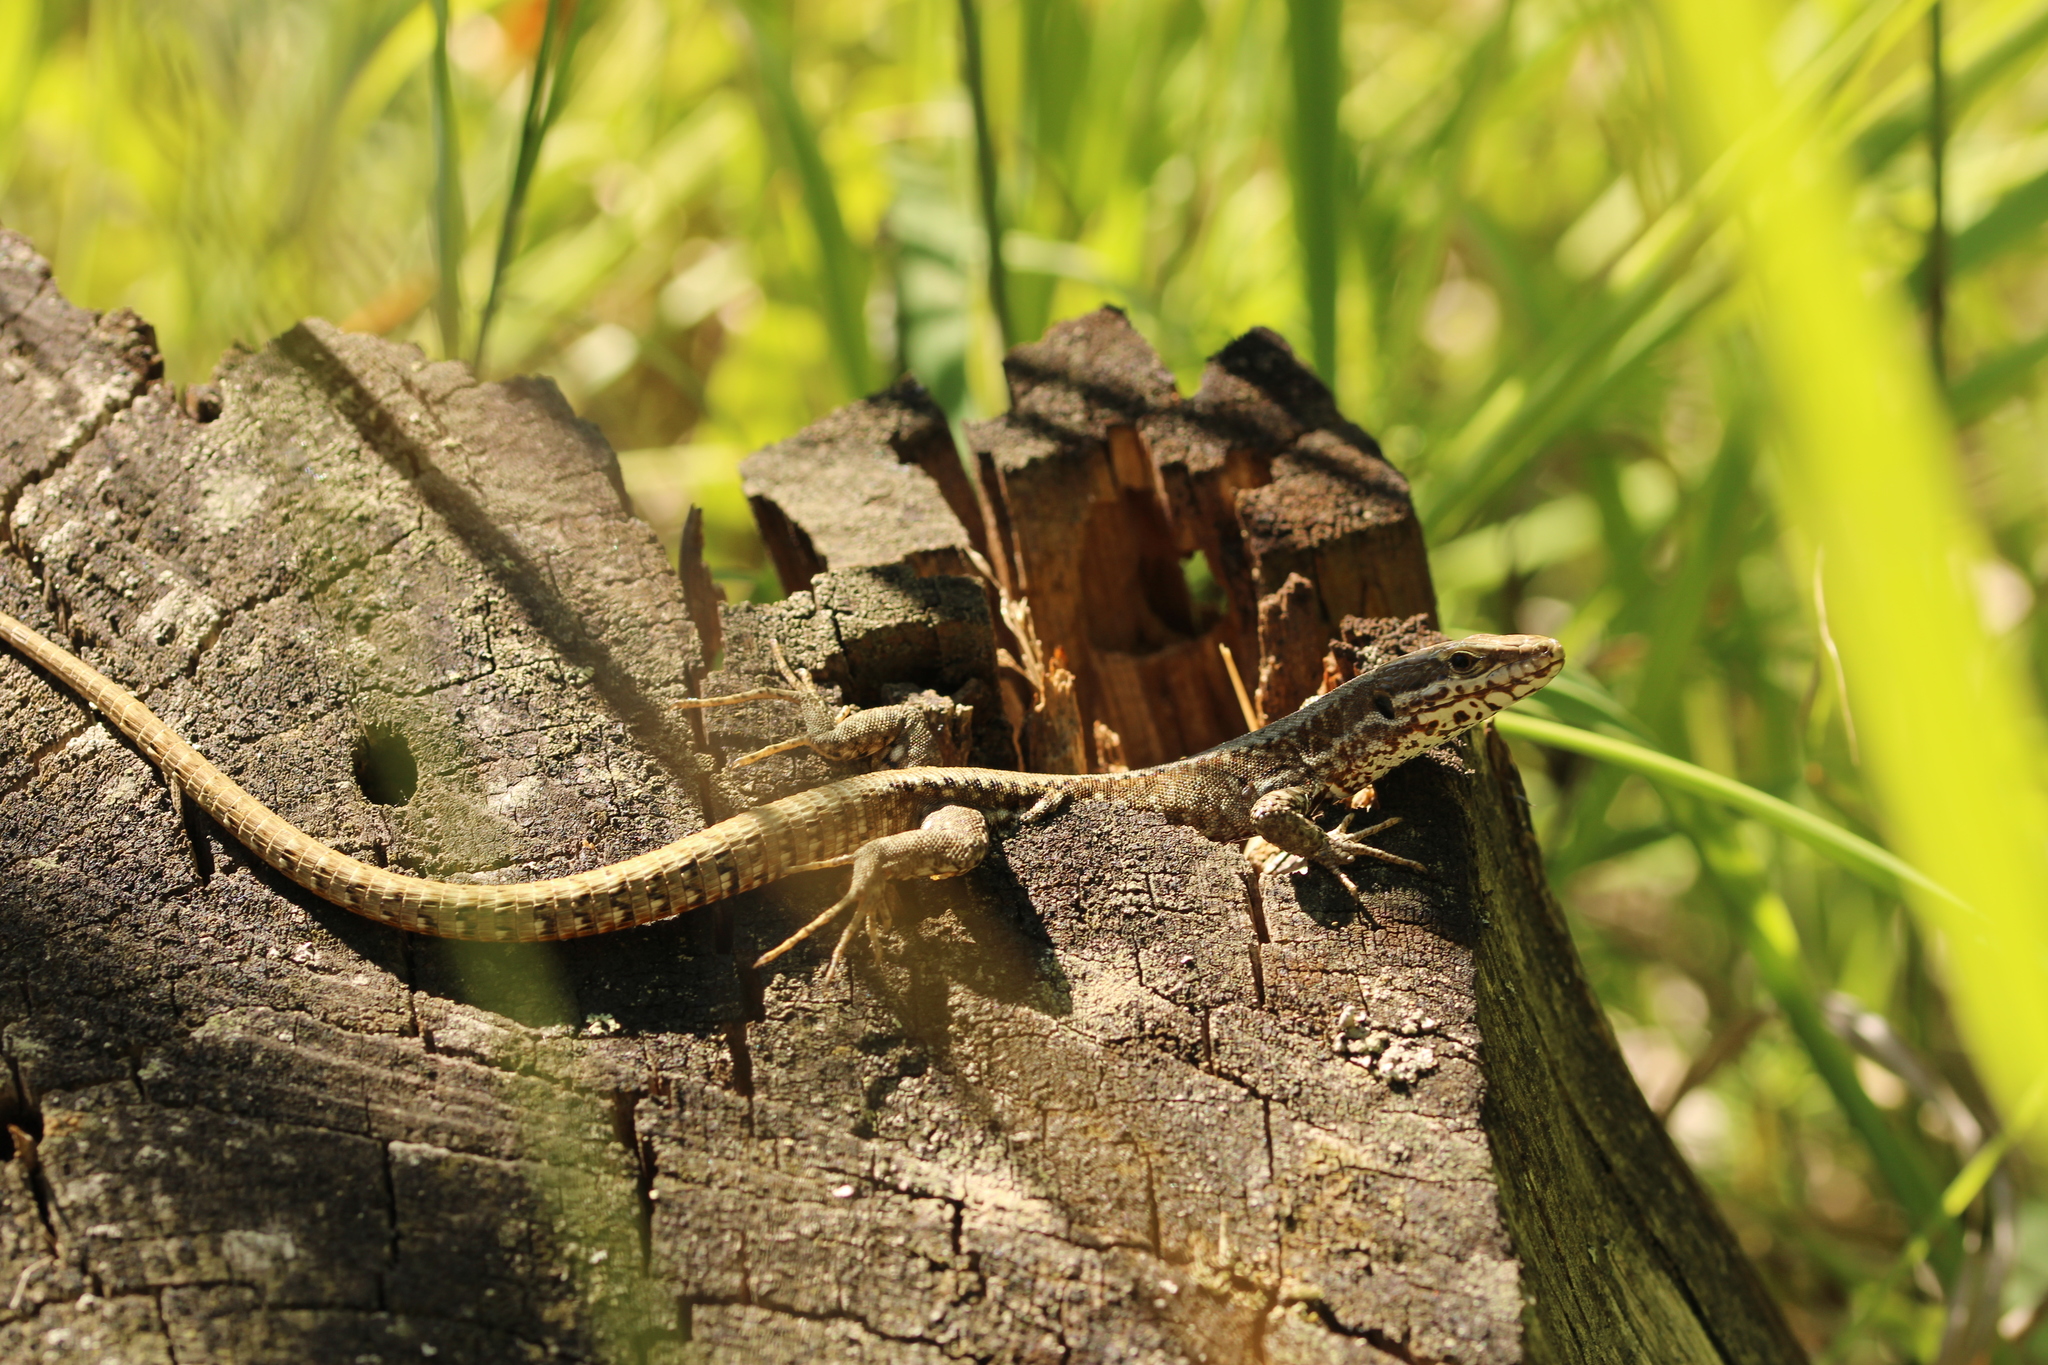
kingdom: Animalia
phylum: Chordata
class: Squamata
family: Lacertidae
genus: Podarcis
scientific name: Podarcis muralis
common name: Common wall lizard
